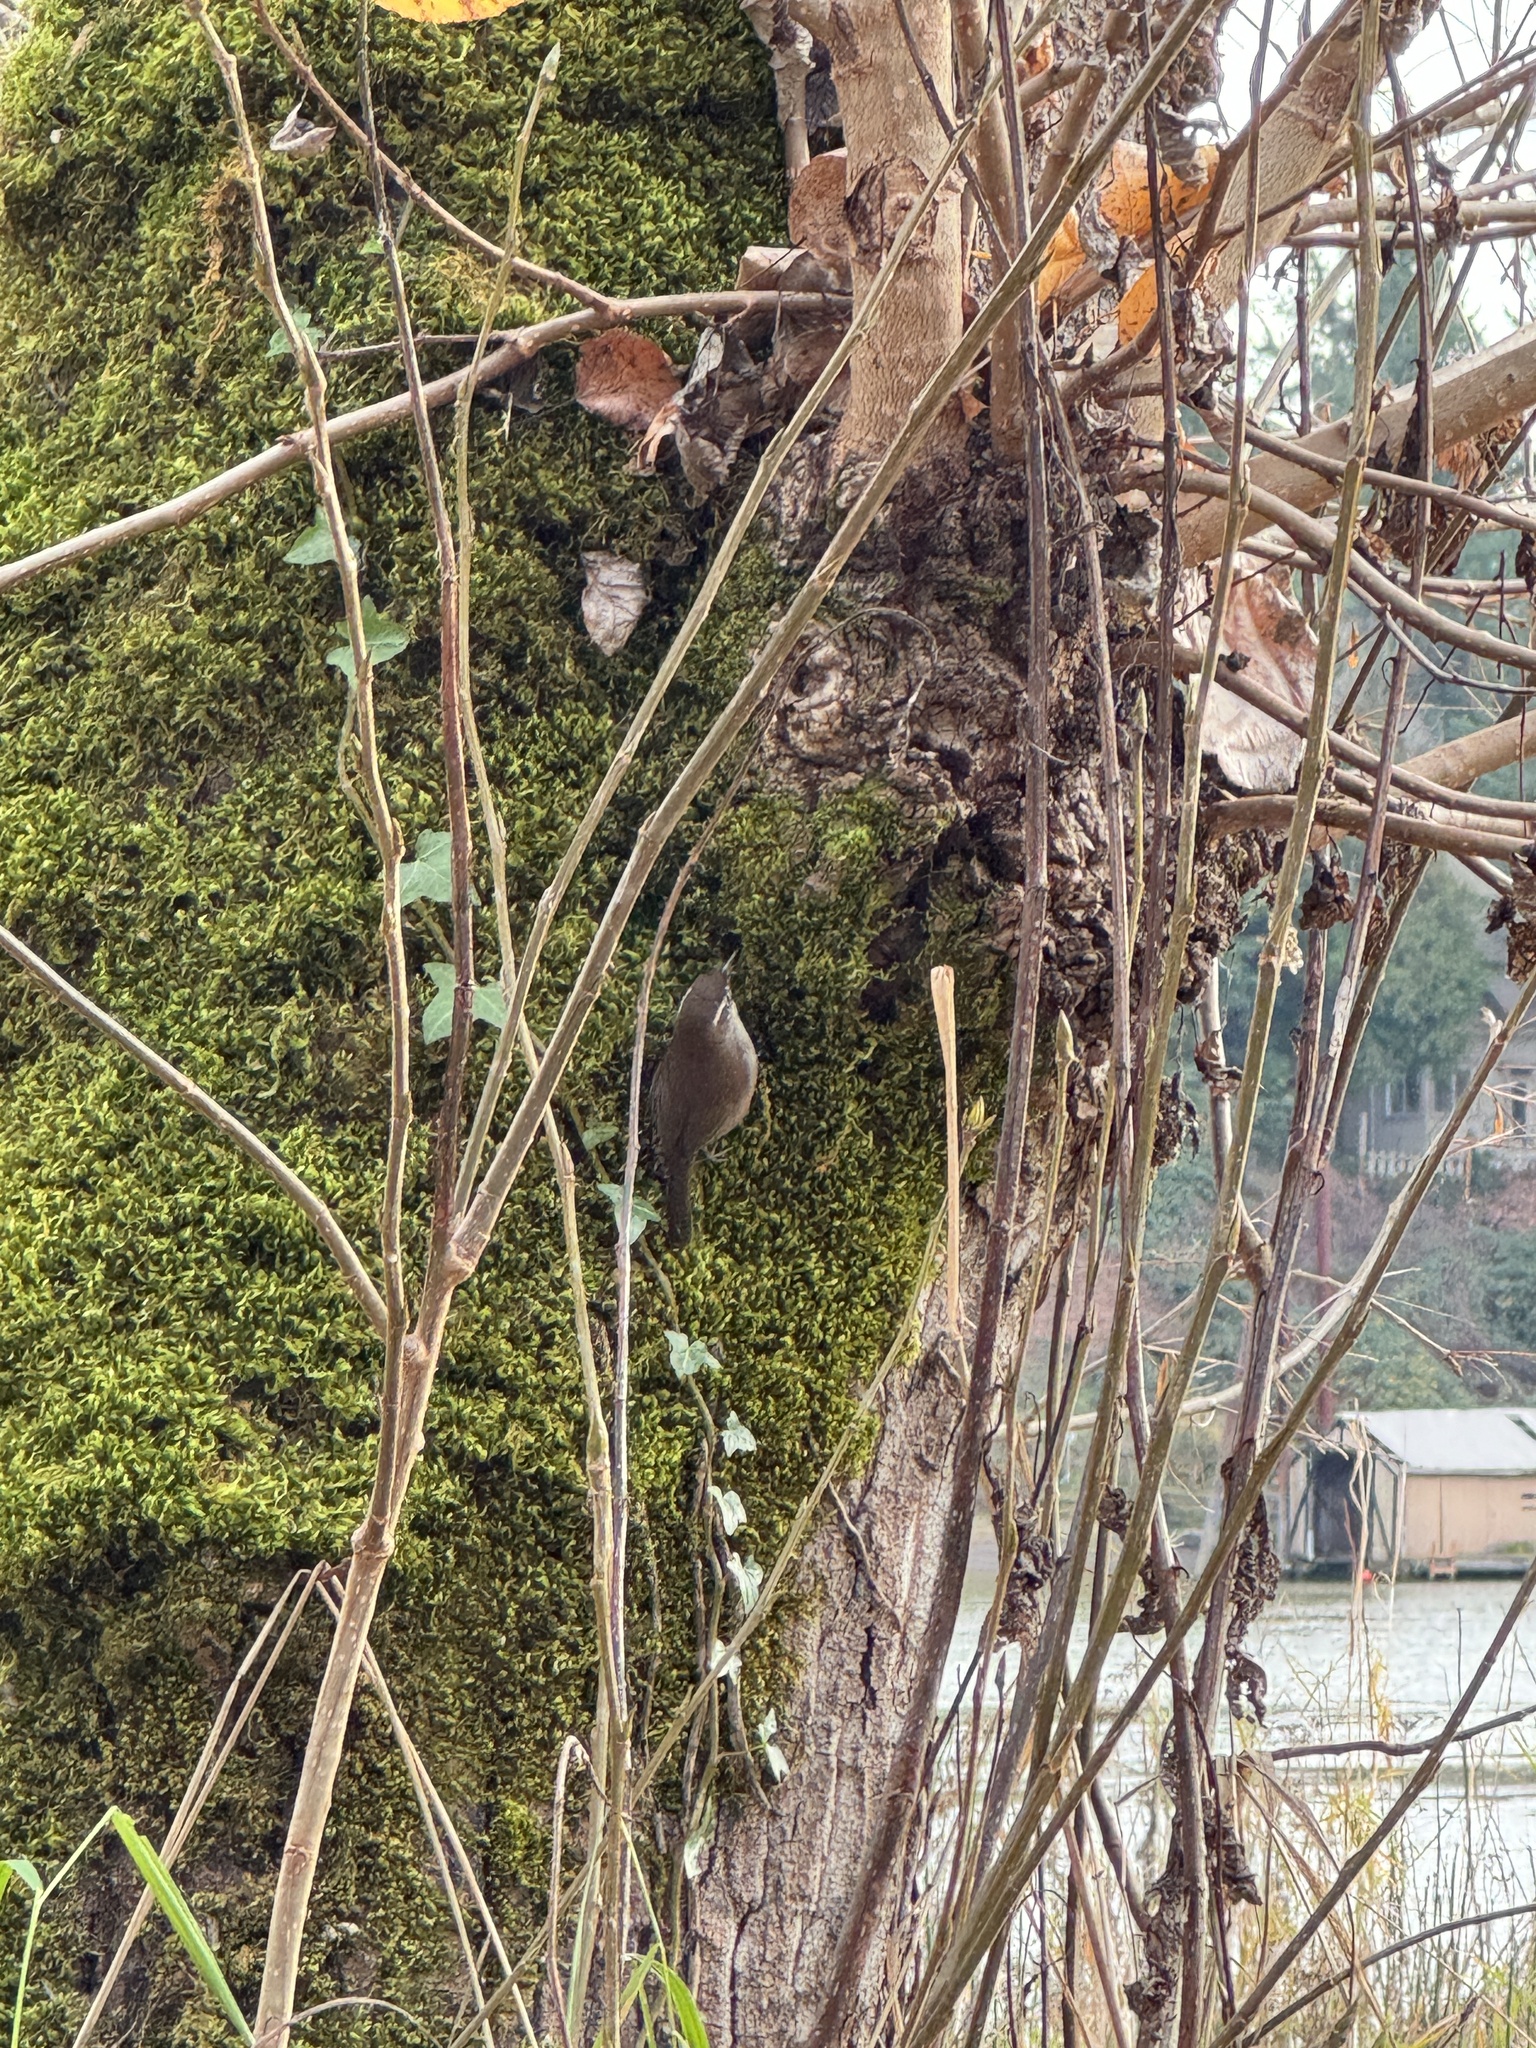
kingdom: Animalia
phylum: Chordata
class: Aves
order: Passeriformes
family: Troglodytidae
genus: Thryomanes
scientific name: Thryomanes bewickii
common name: Bewick's wren
